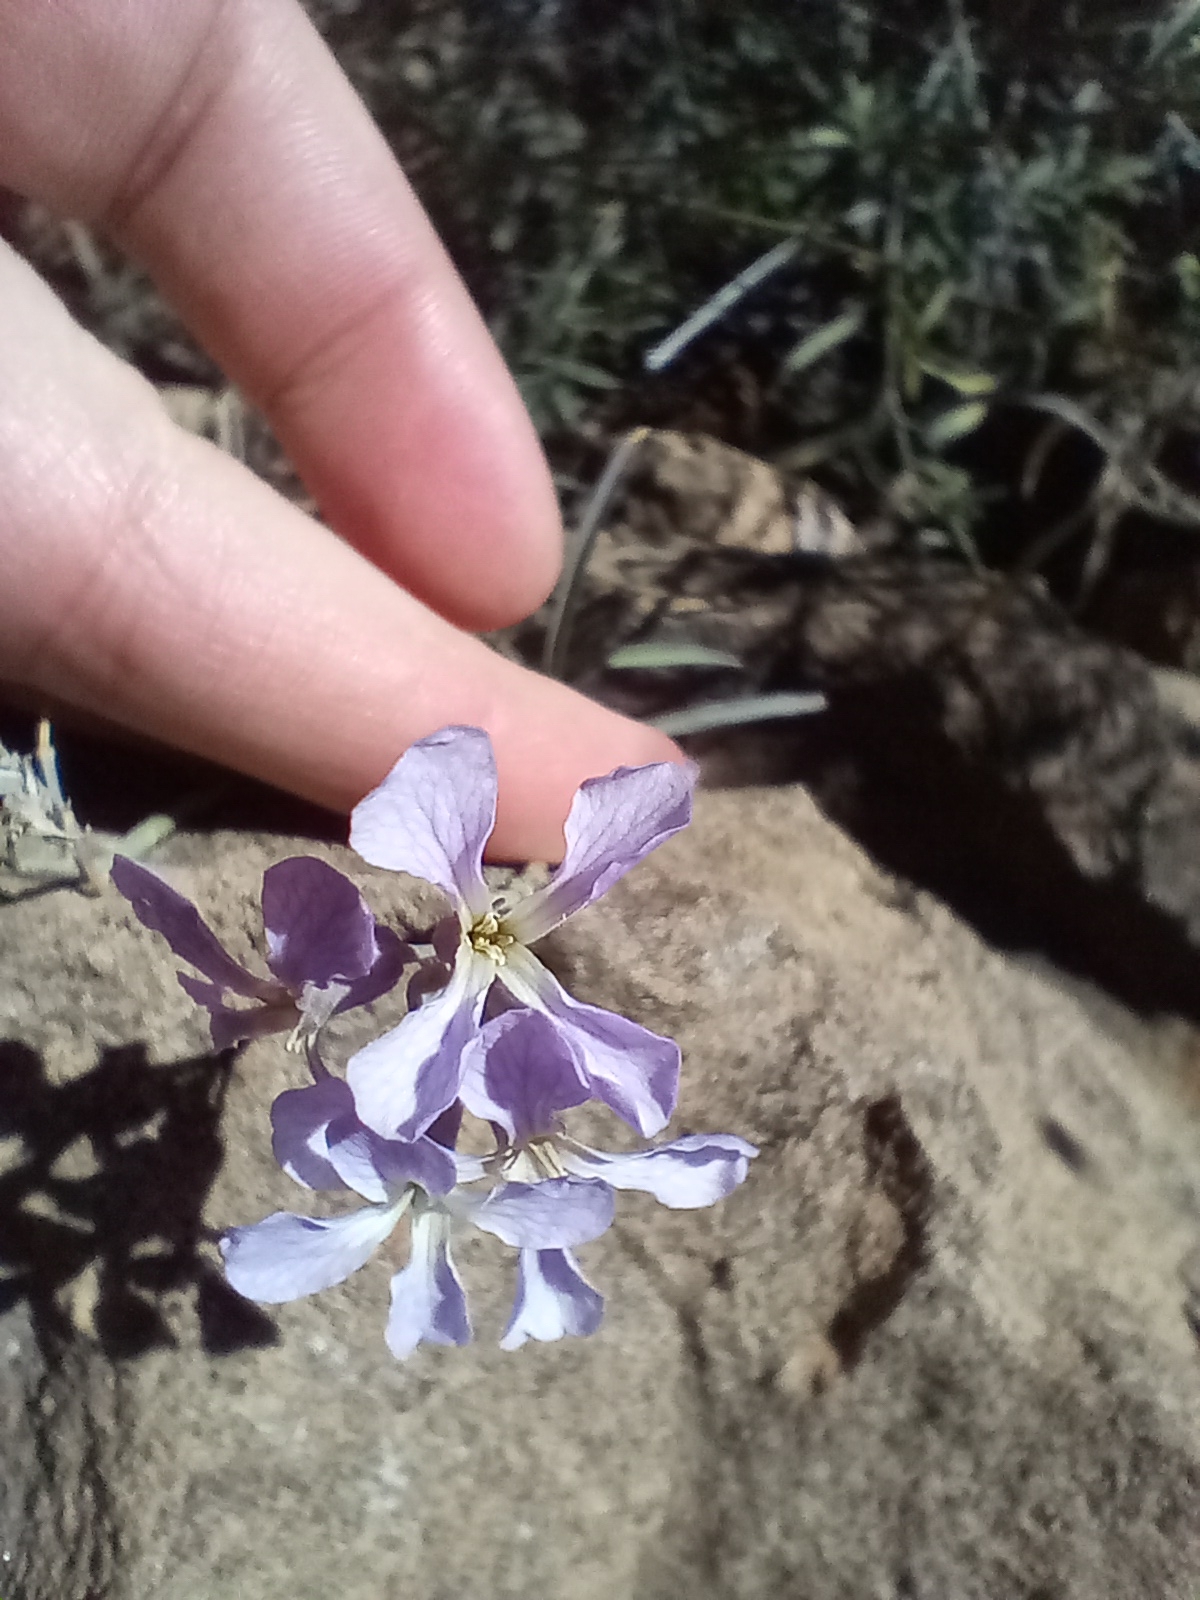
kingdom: Plantae
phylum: Tracheophyta
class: Magnoliopsida
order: Brassicales
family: Brassicaceae
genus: Hesperidanthus
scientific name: Hesperidanthus linearifolius
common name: Slim-leaf plains mustard
